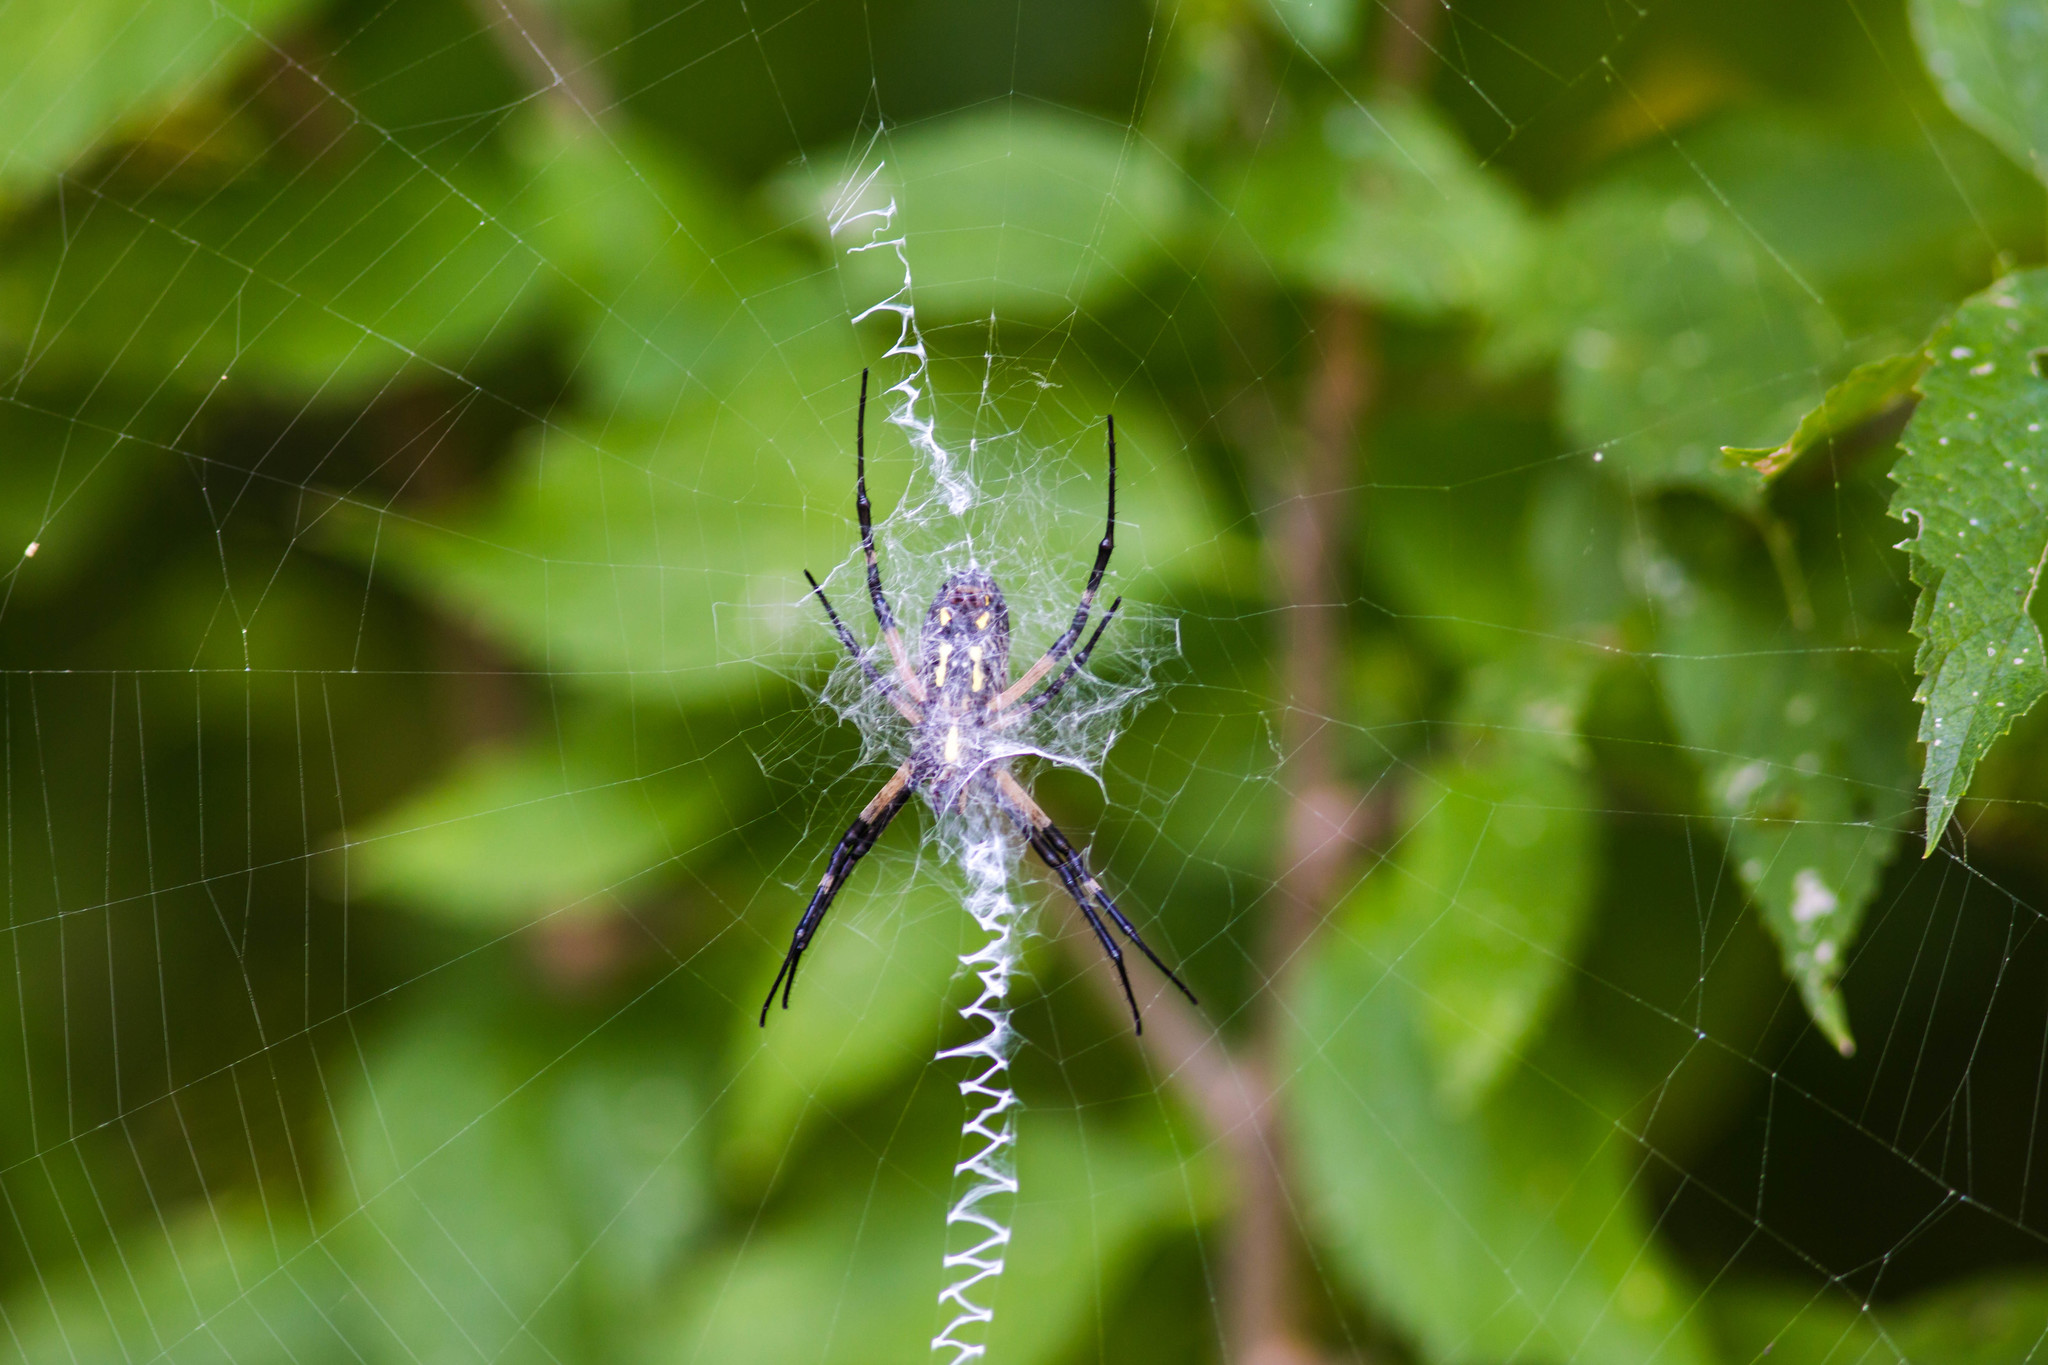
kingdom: Animalia
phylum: Arthropoda
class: Arachnida
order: Araneae
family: Araneidae
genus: Argiope
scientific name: Argiope aurantia
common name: Orb weavers
